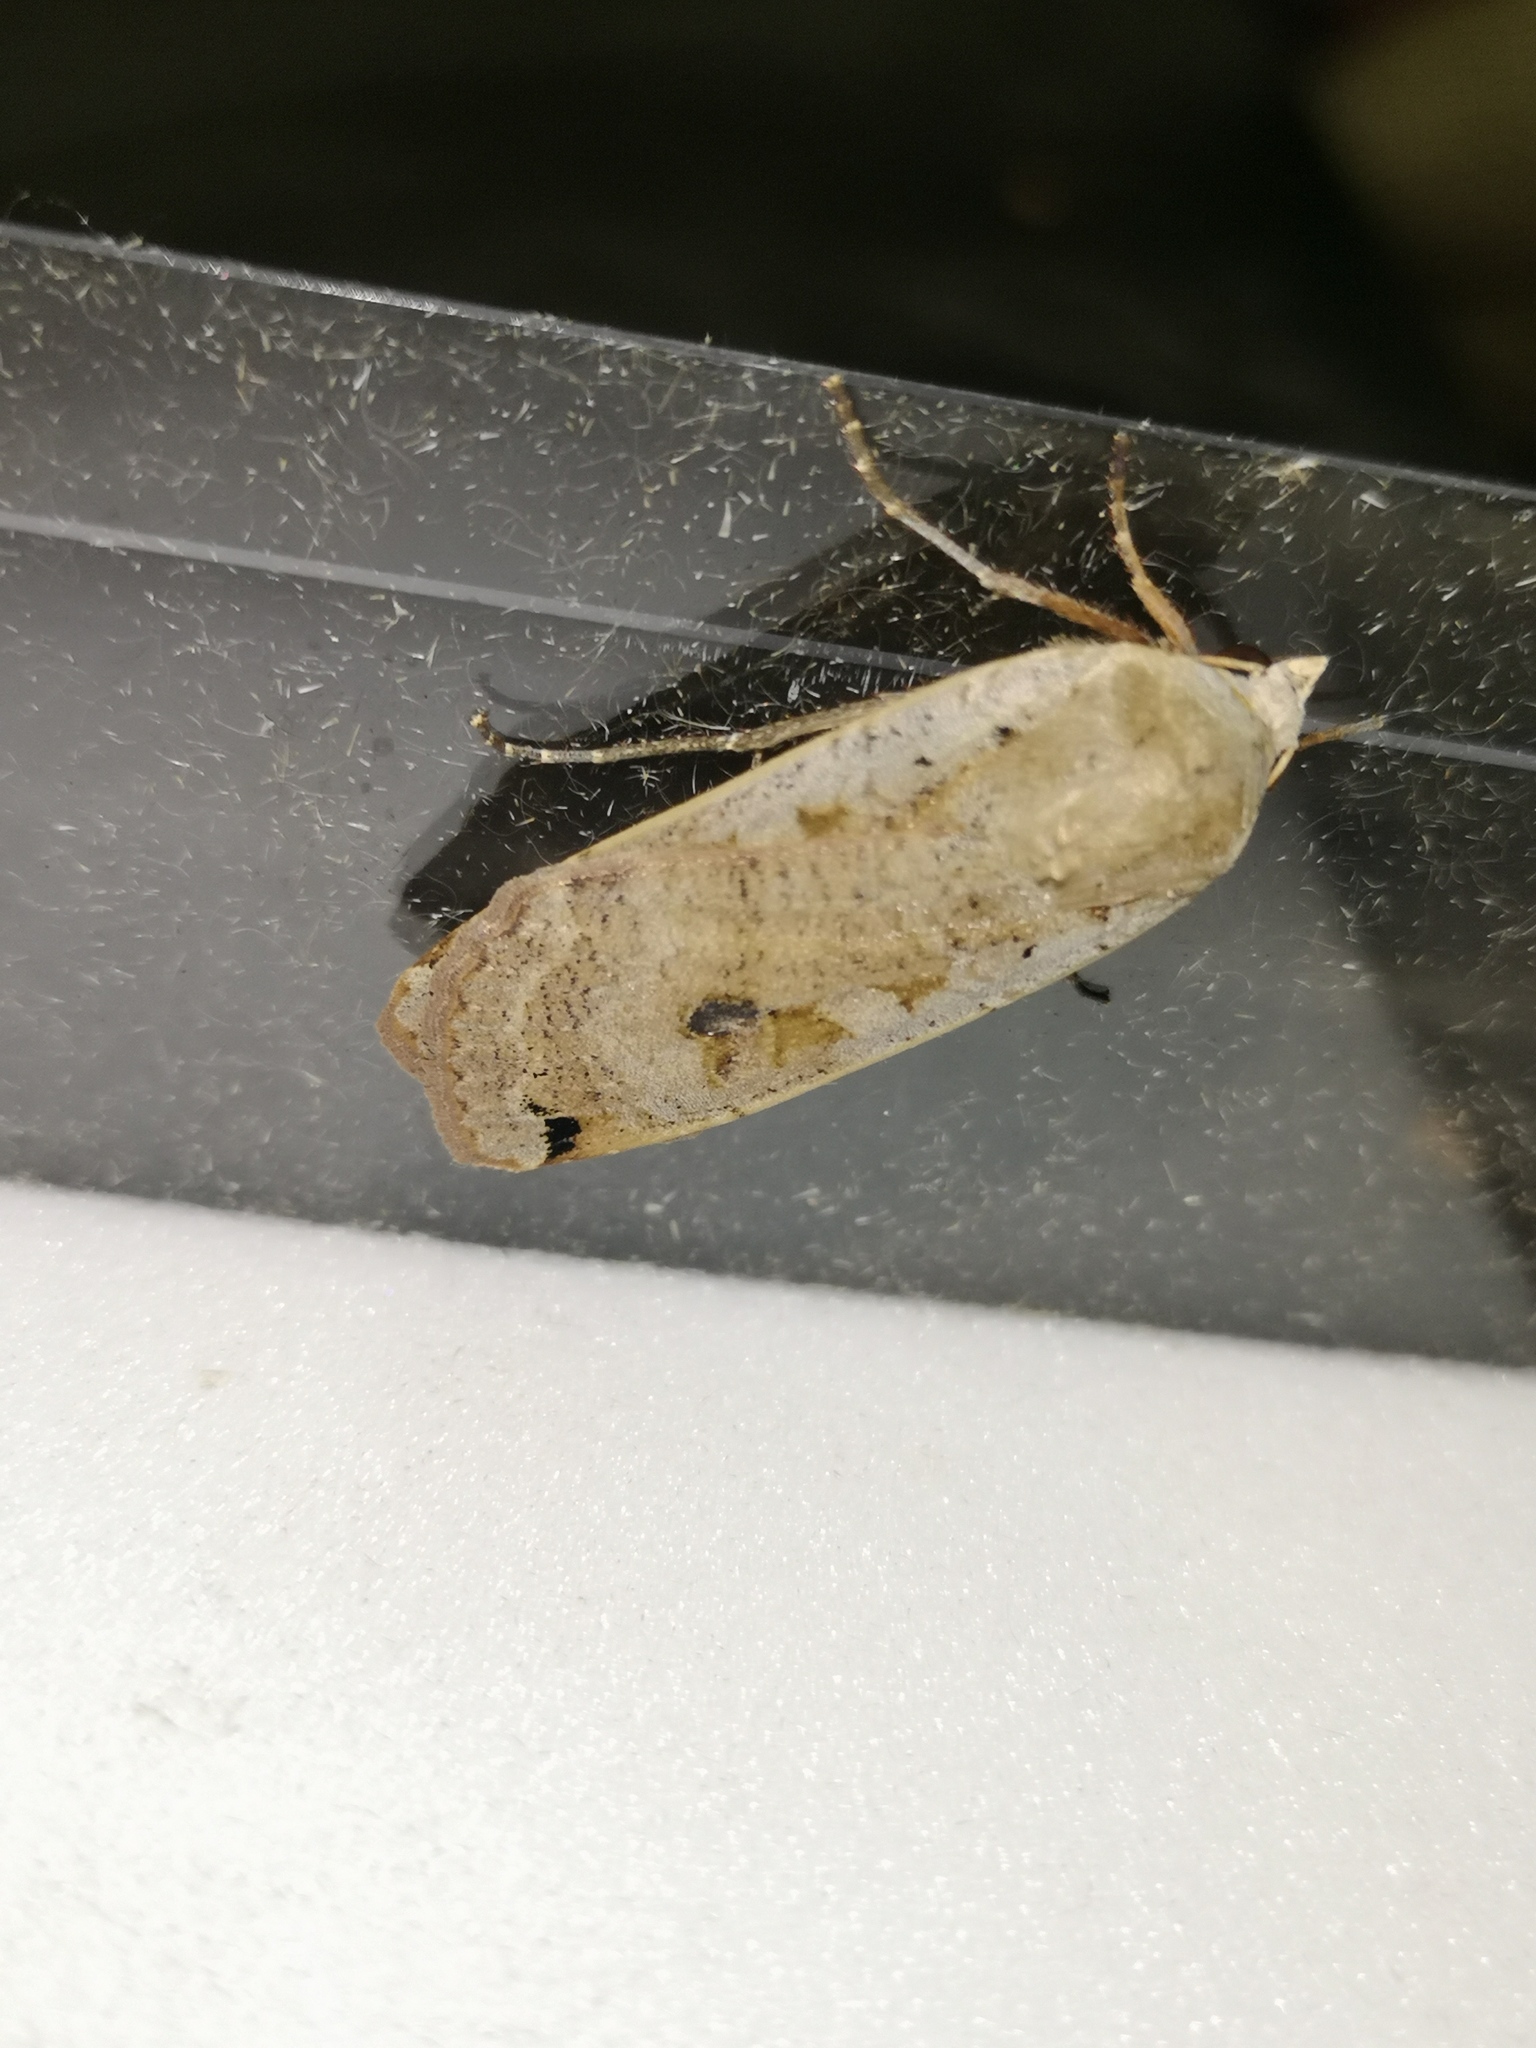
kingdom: Animalia
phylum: Arthropoda
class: Insecta
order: Lepidoptera
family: Noctuidae
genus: Noctua
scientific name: Noctua pronuba
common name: Large yellow underwing
